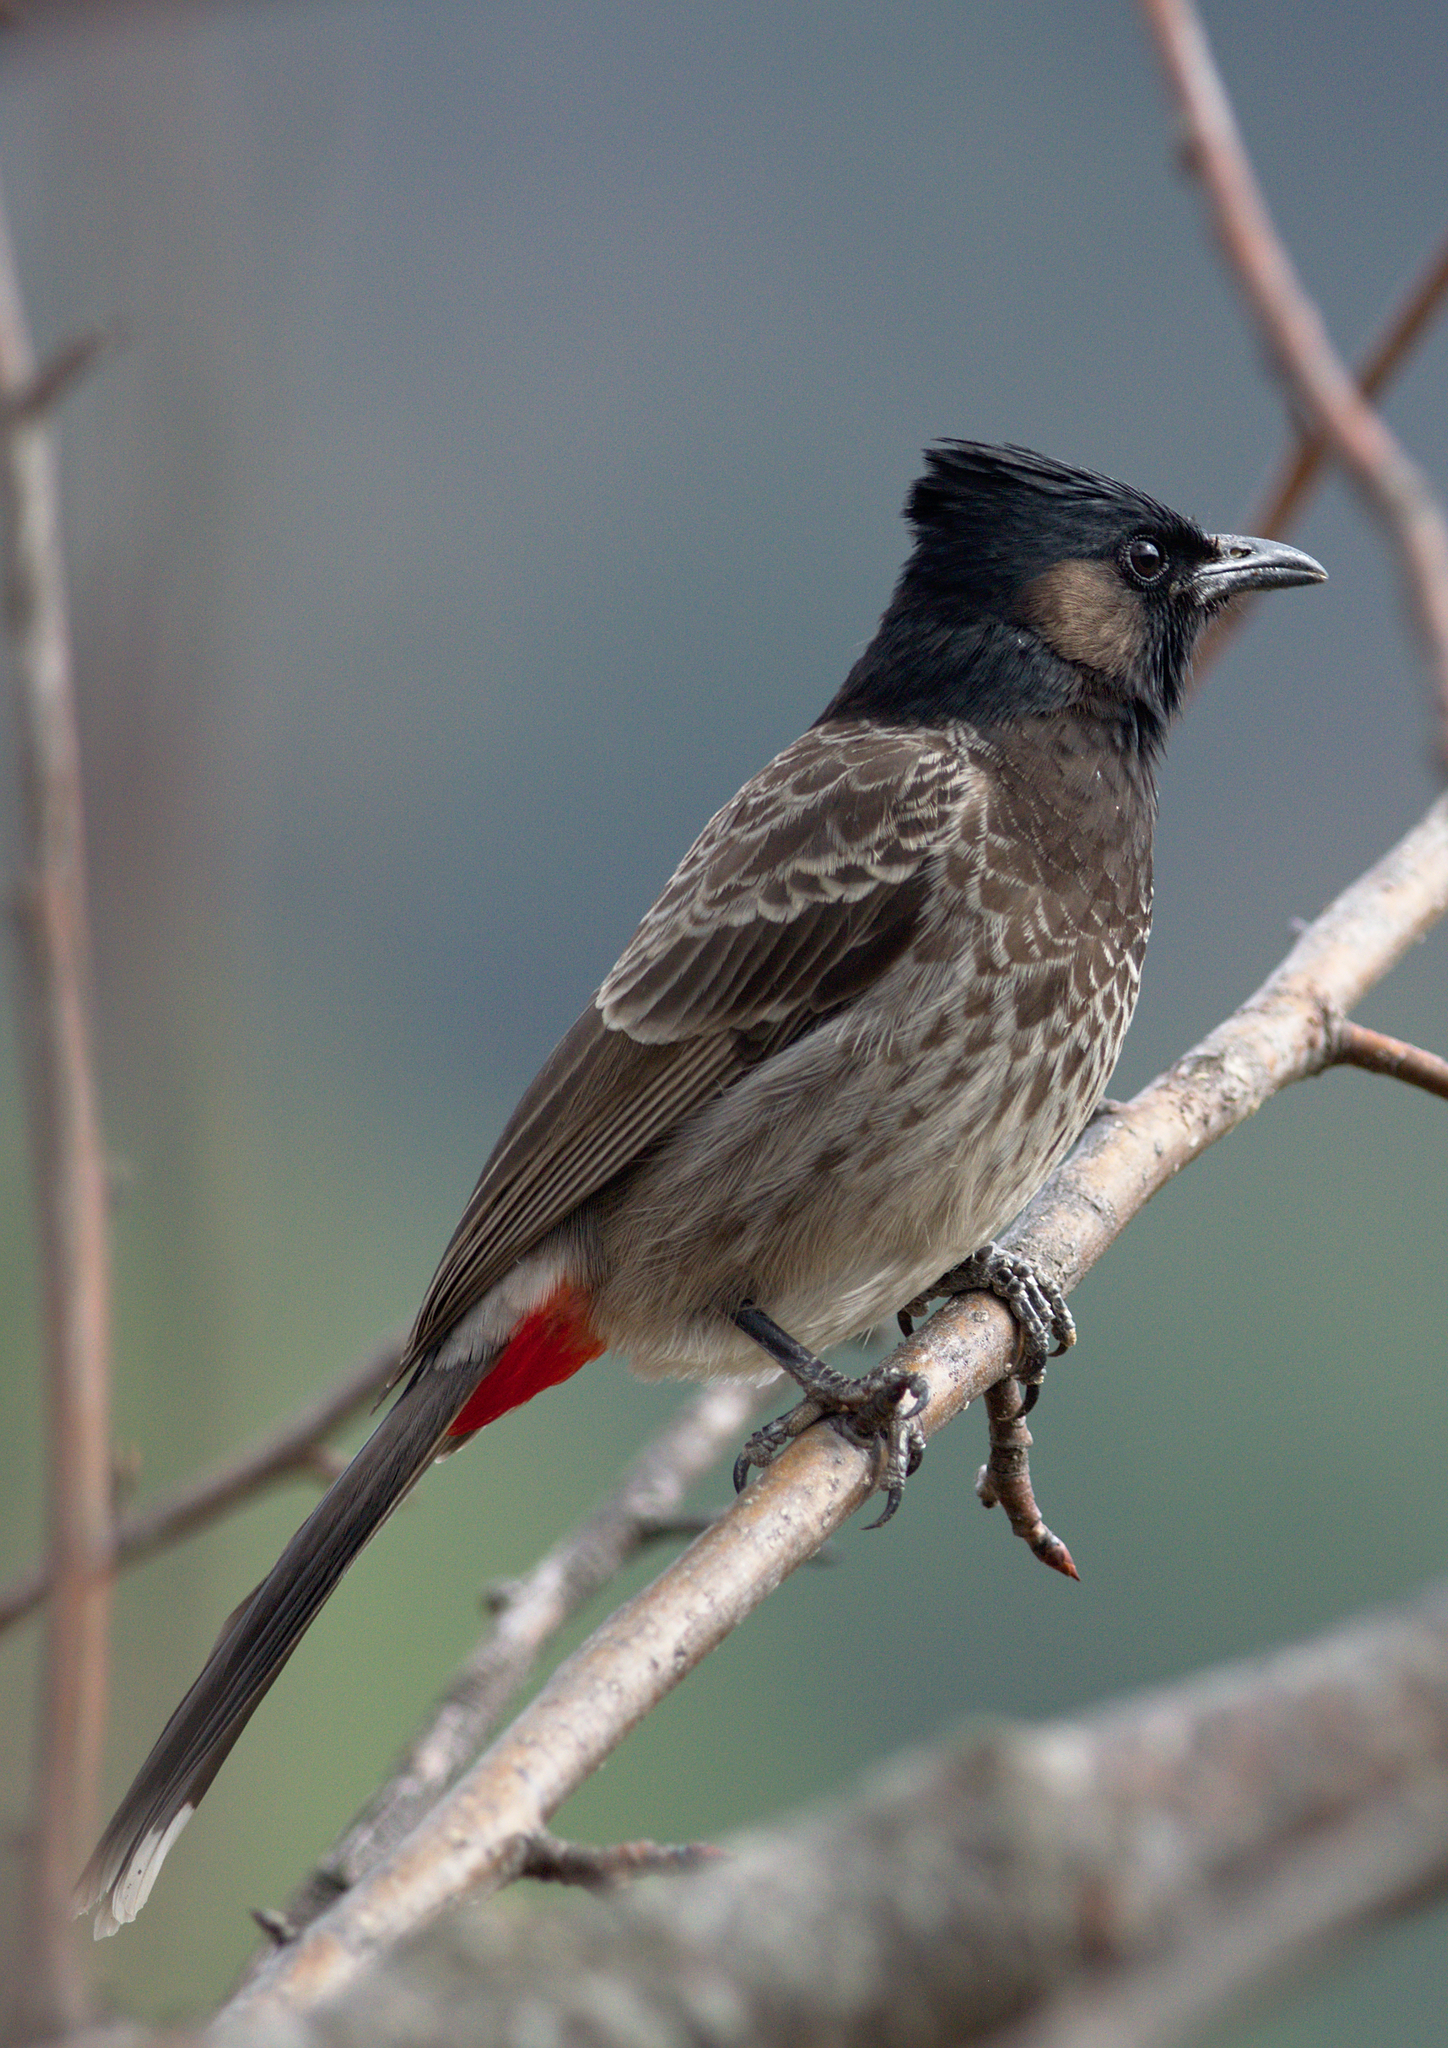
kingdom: Animalia
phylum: Chordata
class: Aves
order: Passeriformes
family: Pycnonotidae
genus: Pycnonotus
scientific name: Pycnonotus cafer
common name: Red-vented bulbul
